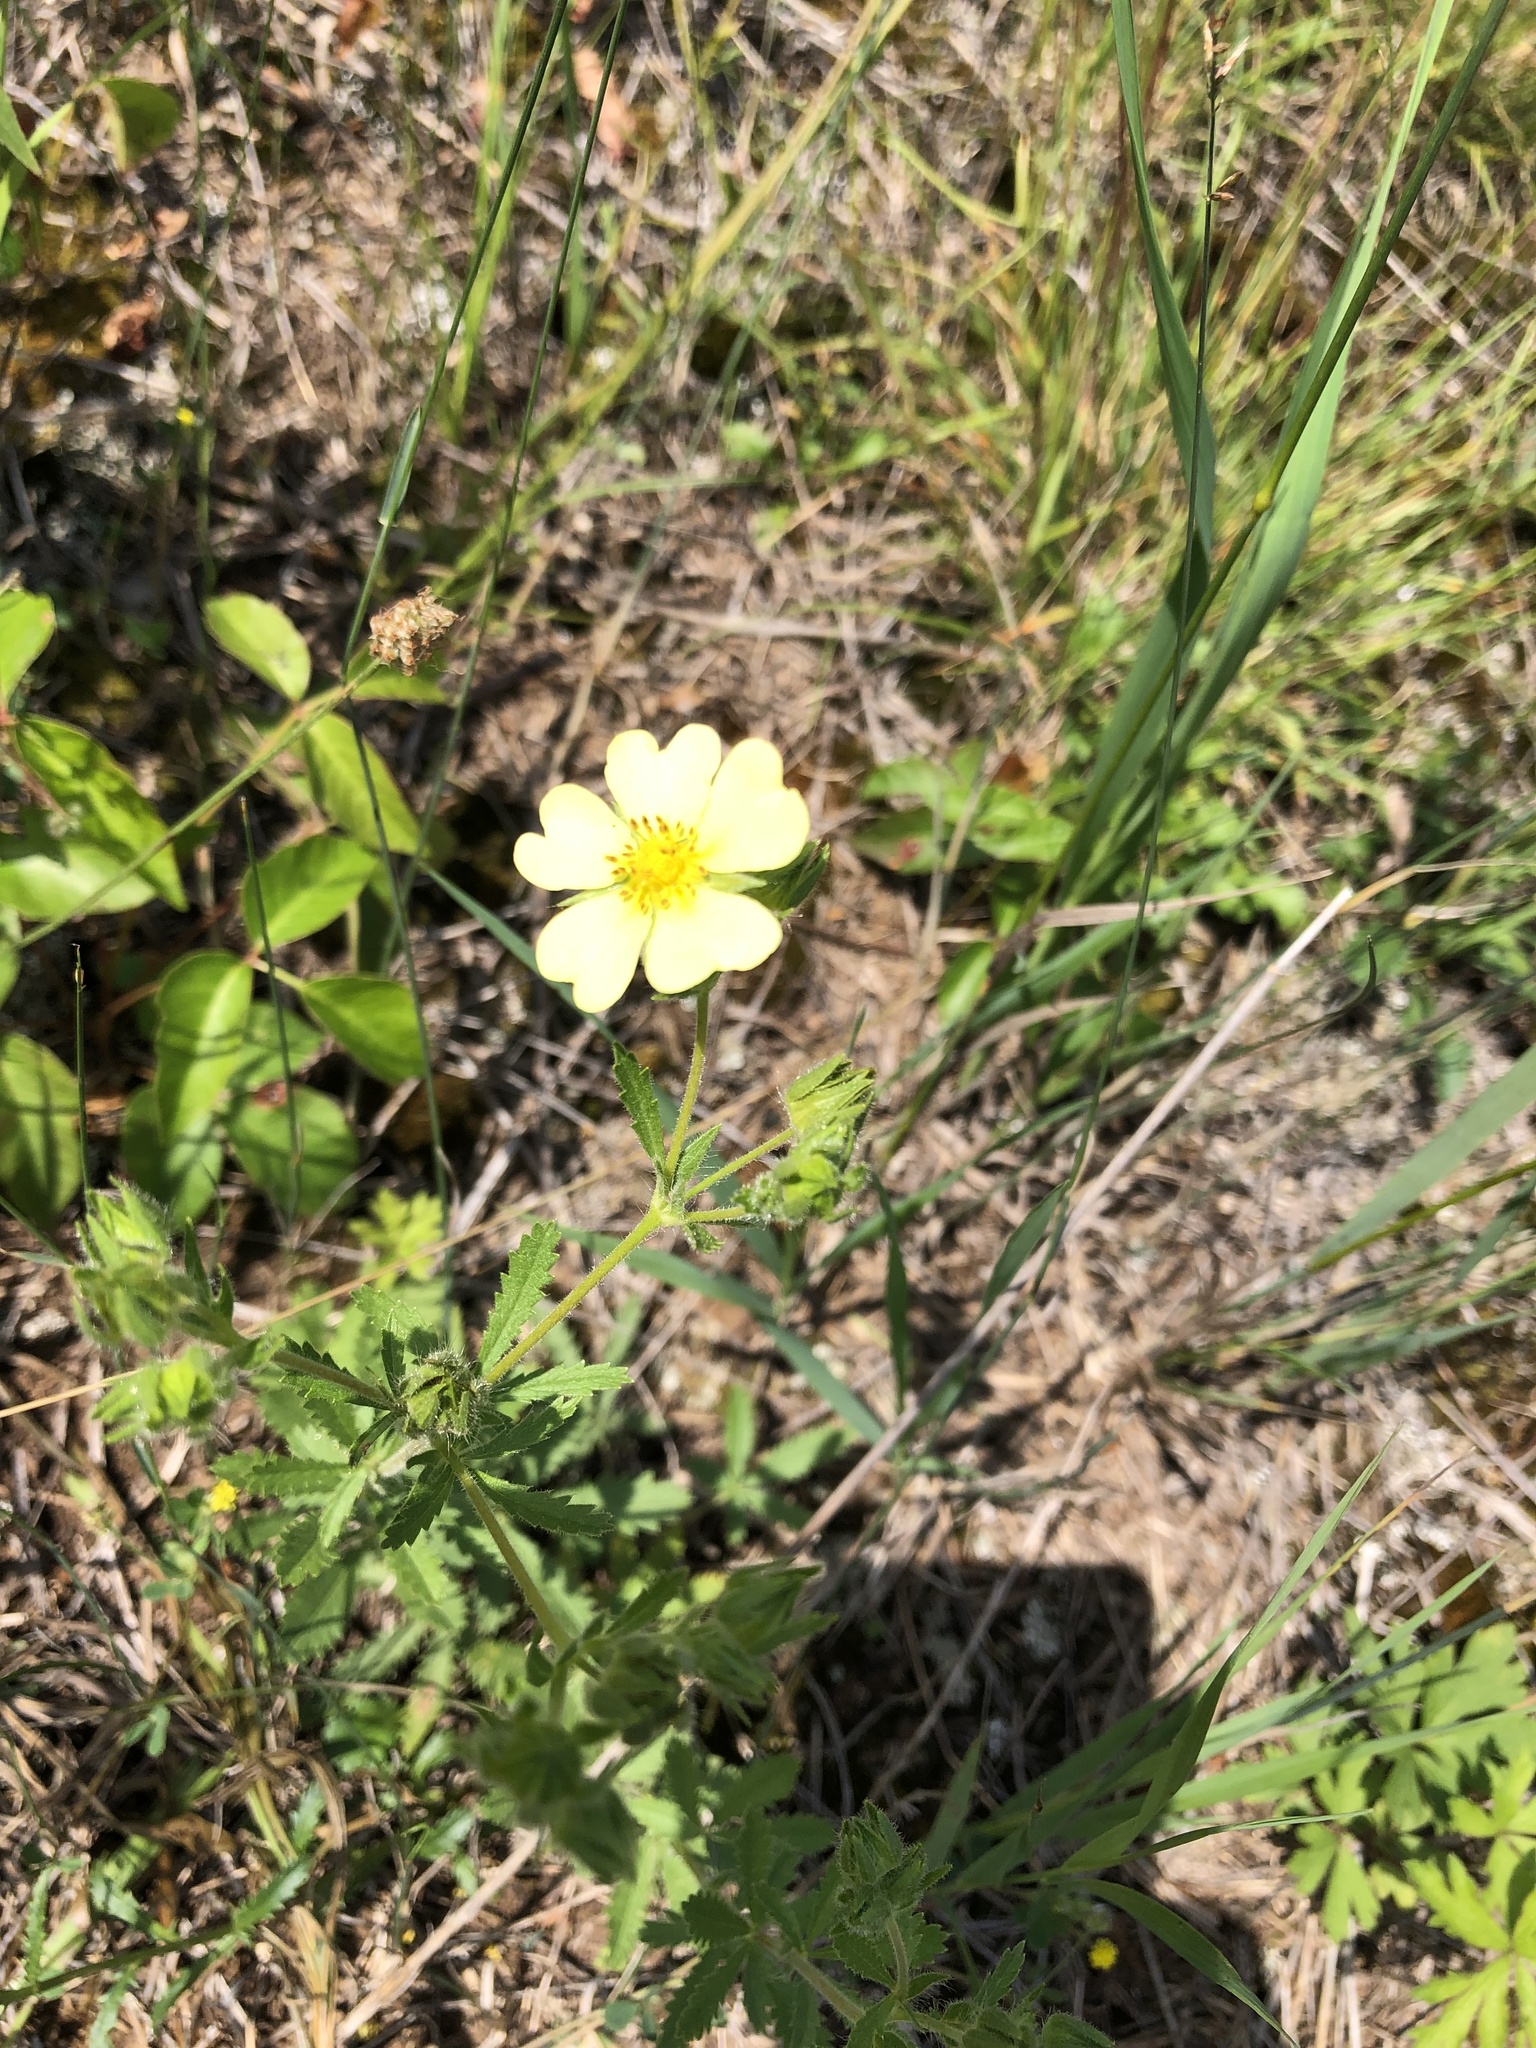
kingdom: Plantae
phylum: Tracheophyta
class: Magnoliopsida
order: Rosales
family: Rosaceae
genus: Potentilla
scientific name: Potentilla recta
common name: Sulphur cinquefoil
